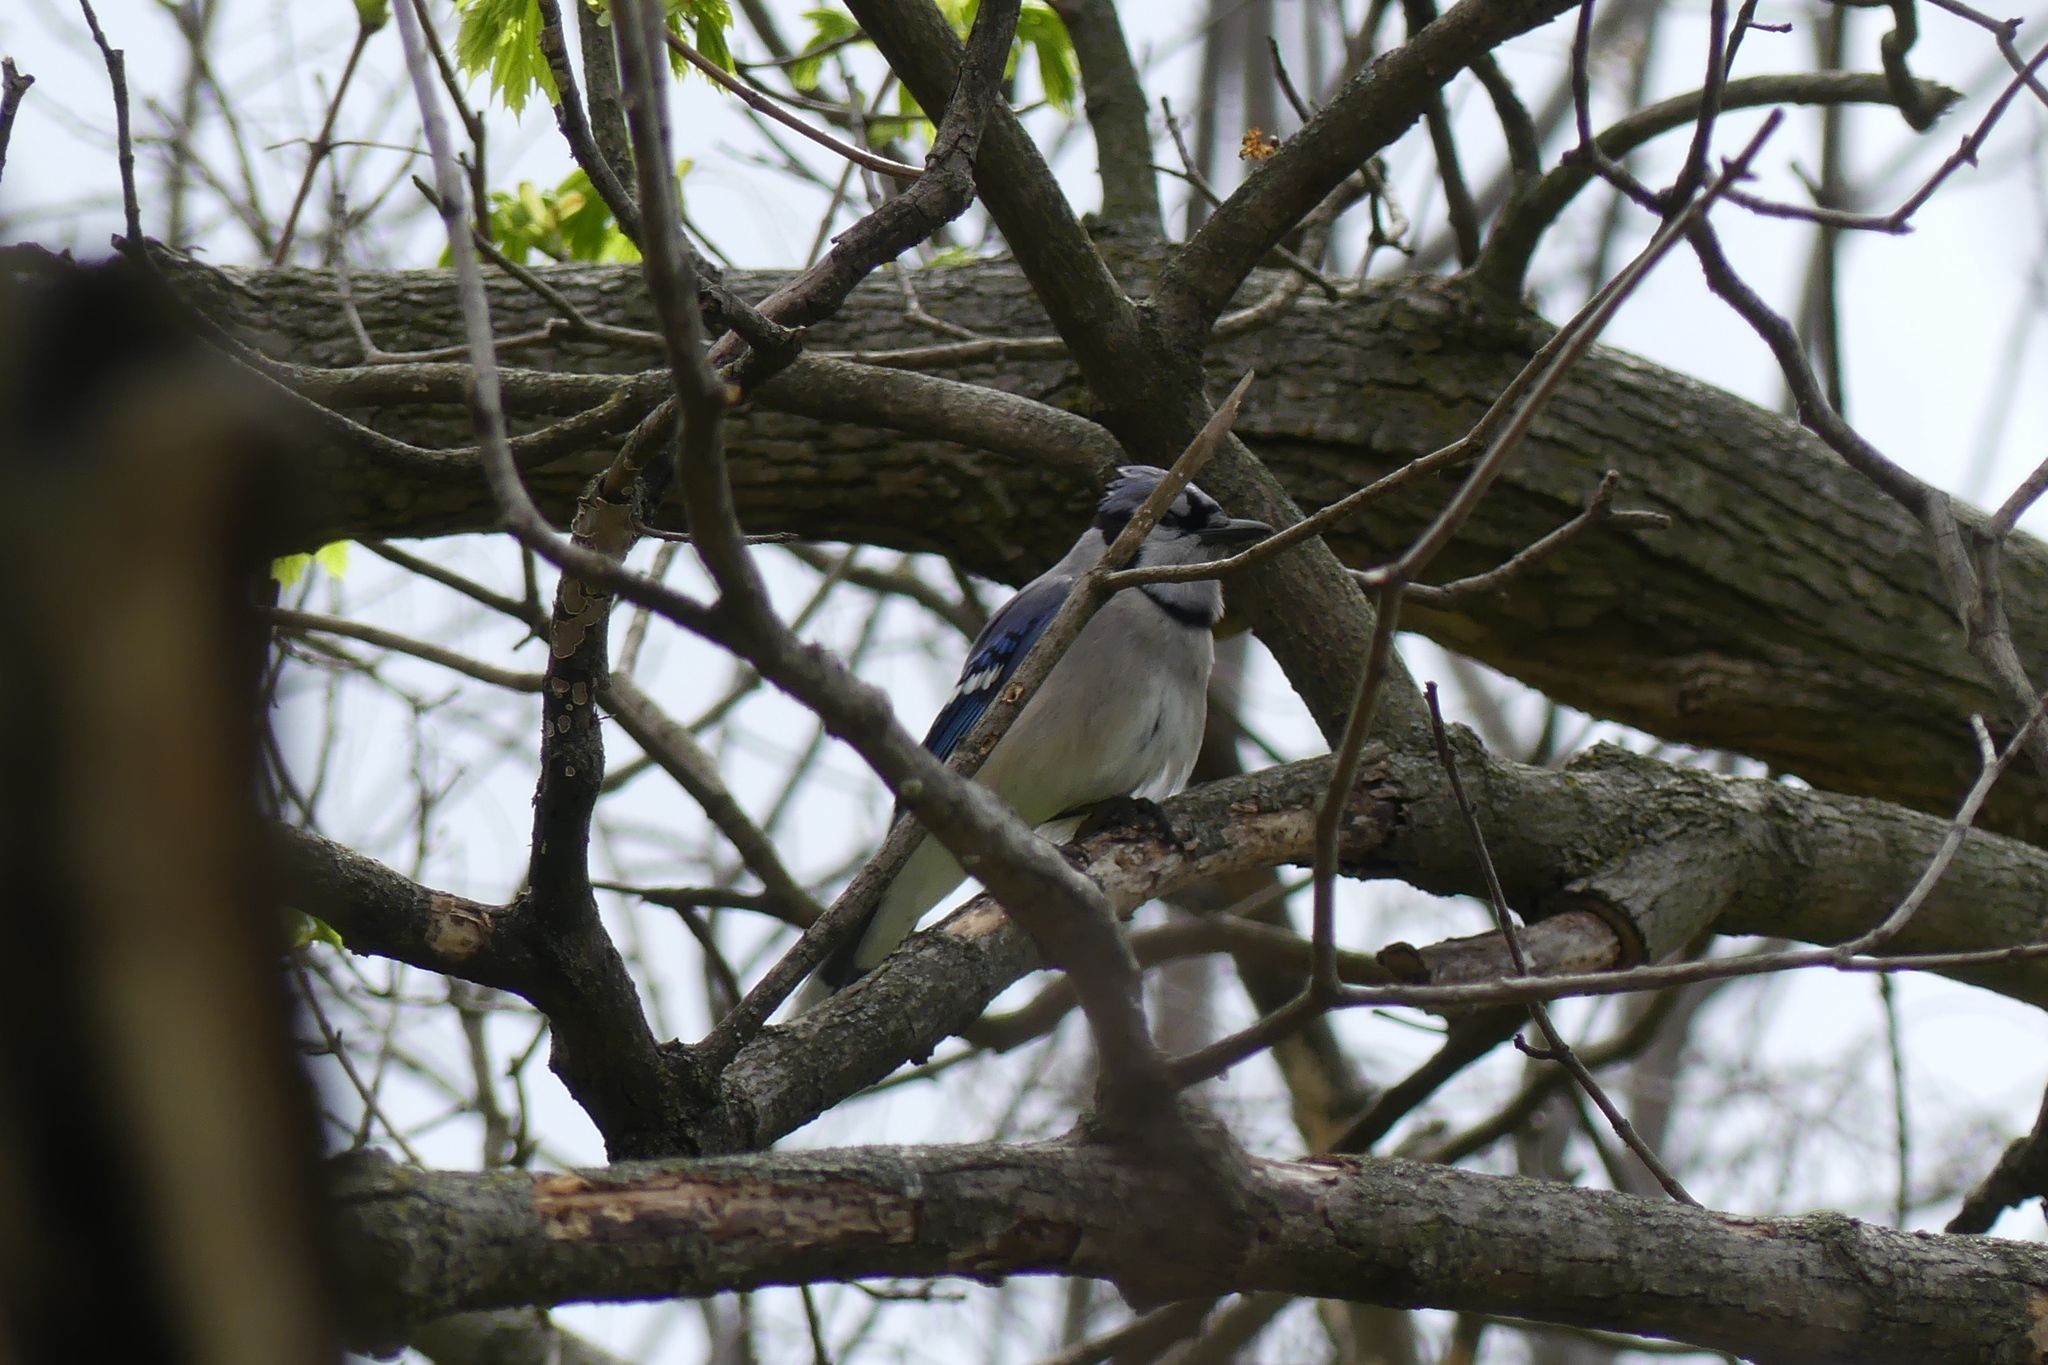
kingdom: Animalia
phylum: Chordata
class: Aves
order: Passeriformes
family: Corvidae
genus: Cyanocitta
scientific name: Cyanocitta cristata
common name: Blue jay
